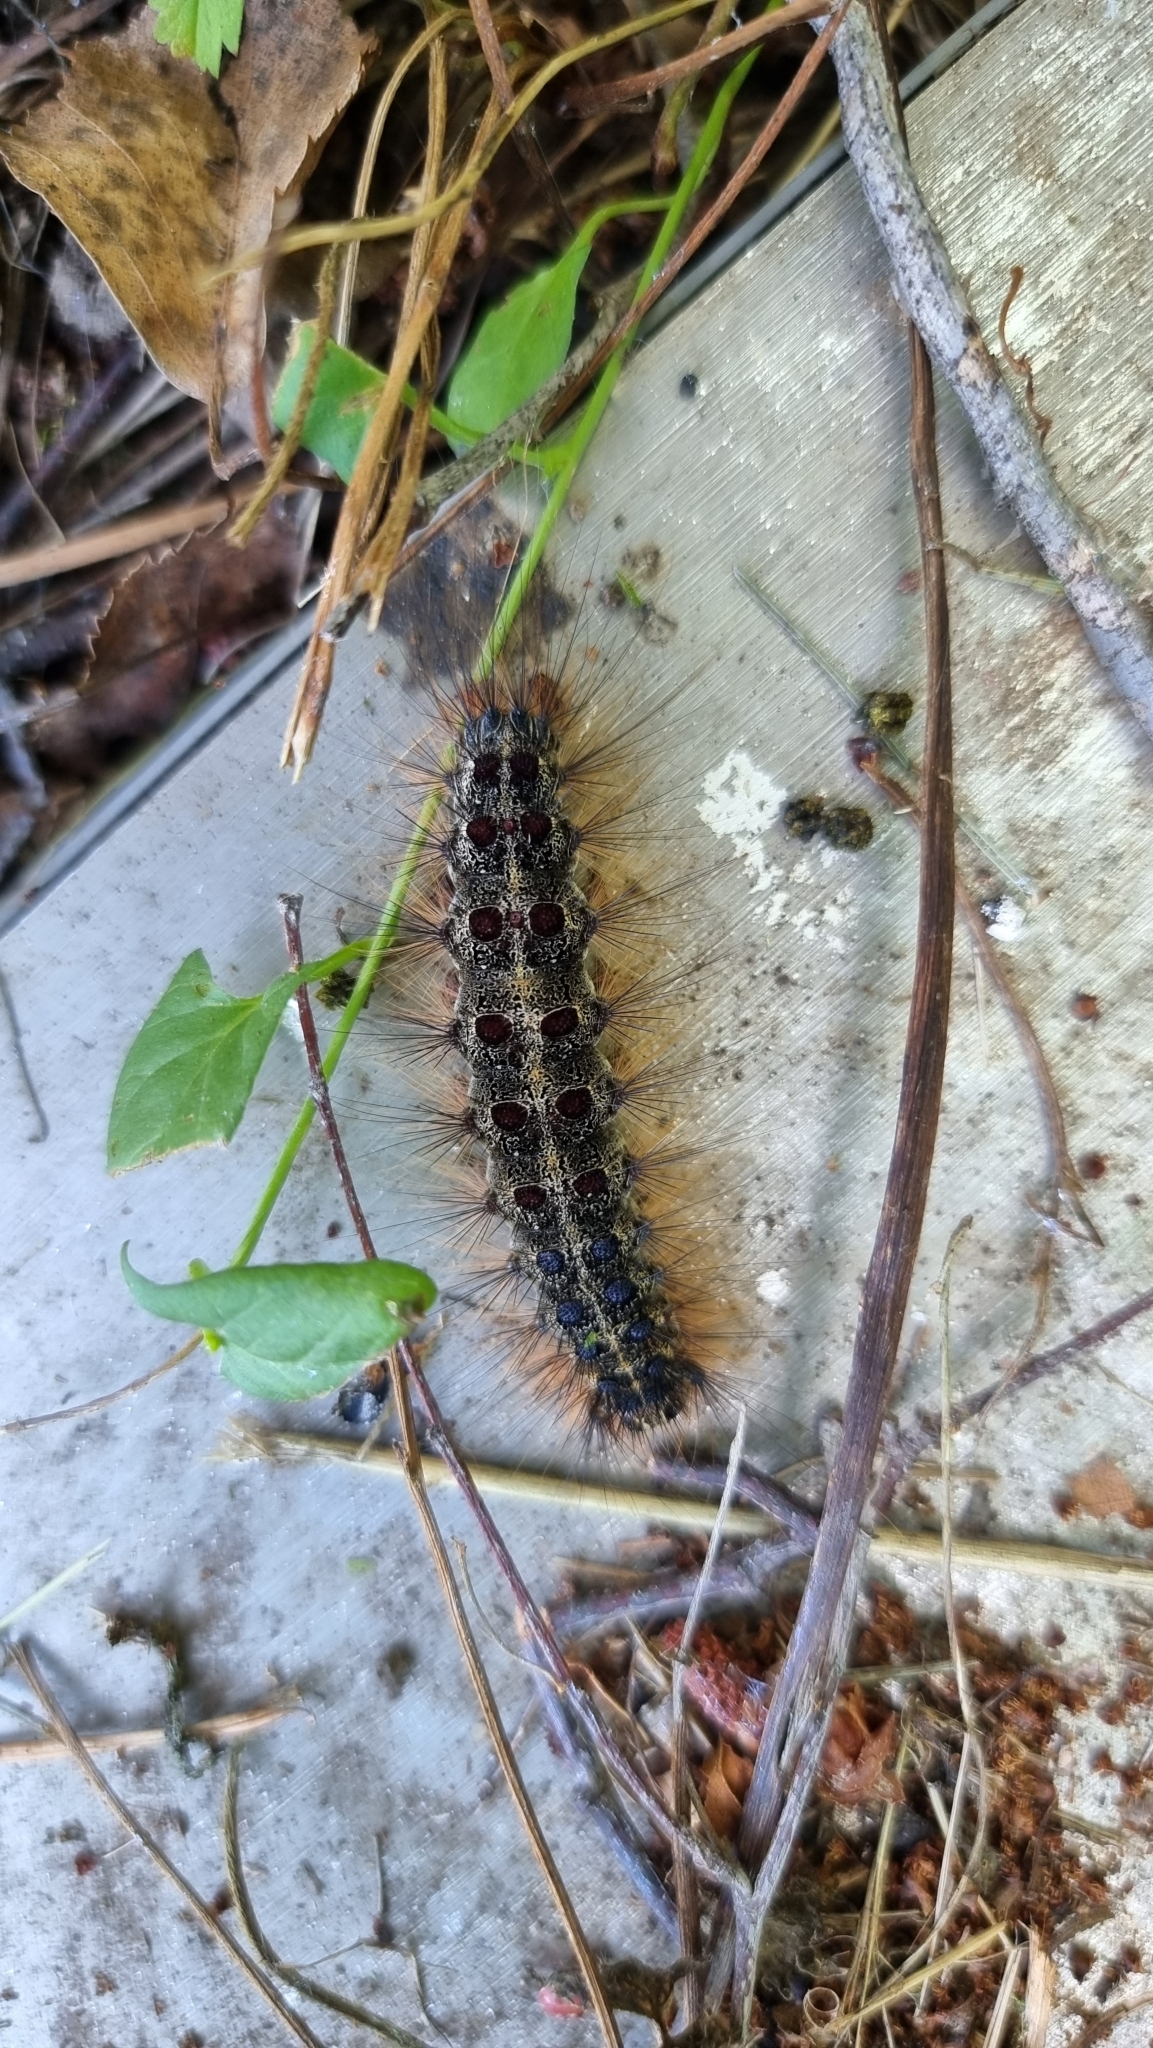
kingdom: Animalia
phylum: Arthropoda
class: Insecta
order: Lepidoptera
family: Erebidae
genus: Lymantria
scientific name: Lymantria dispar
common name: Gypsy moth
